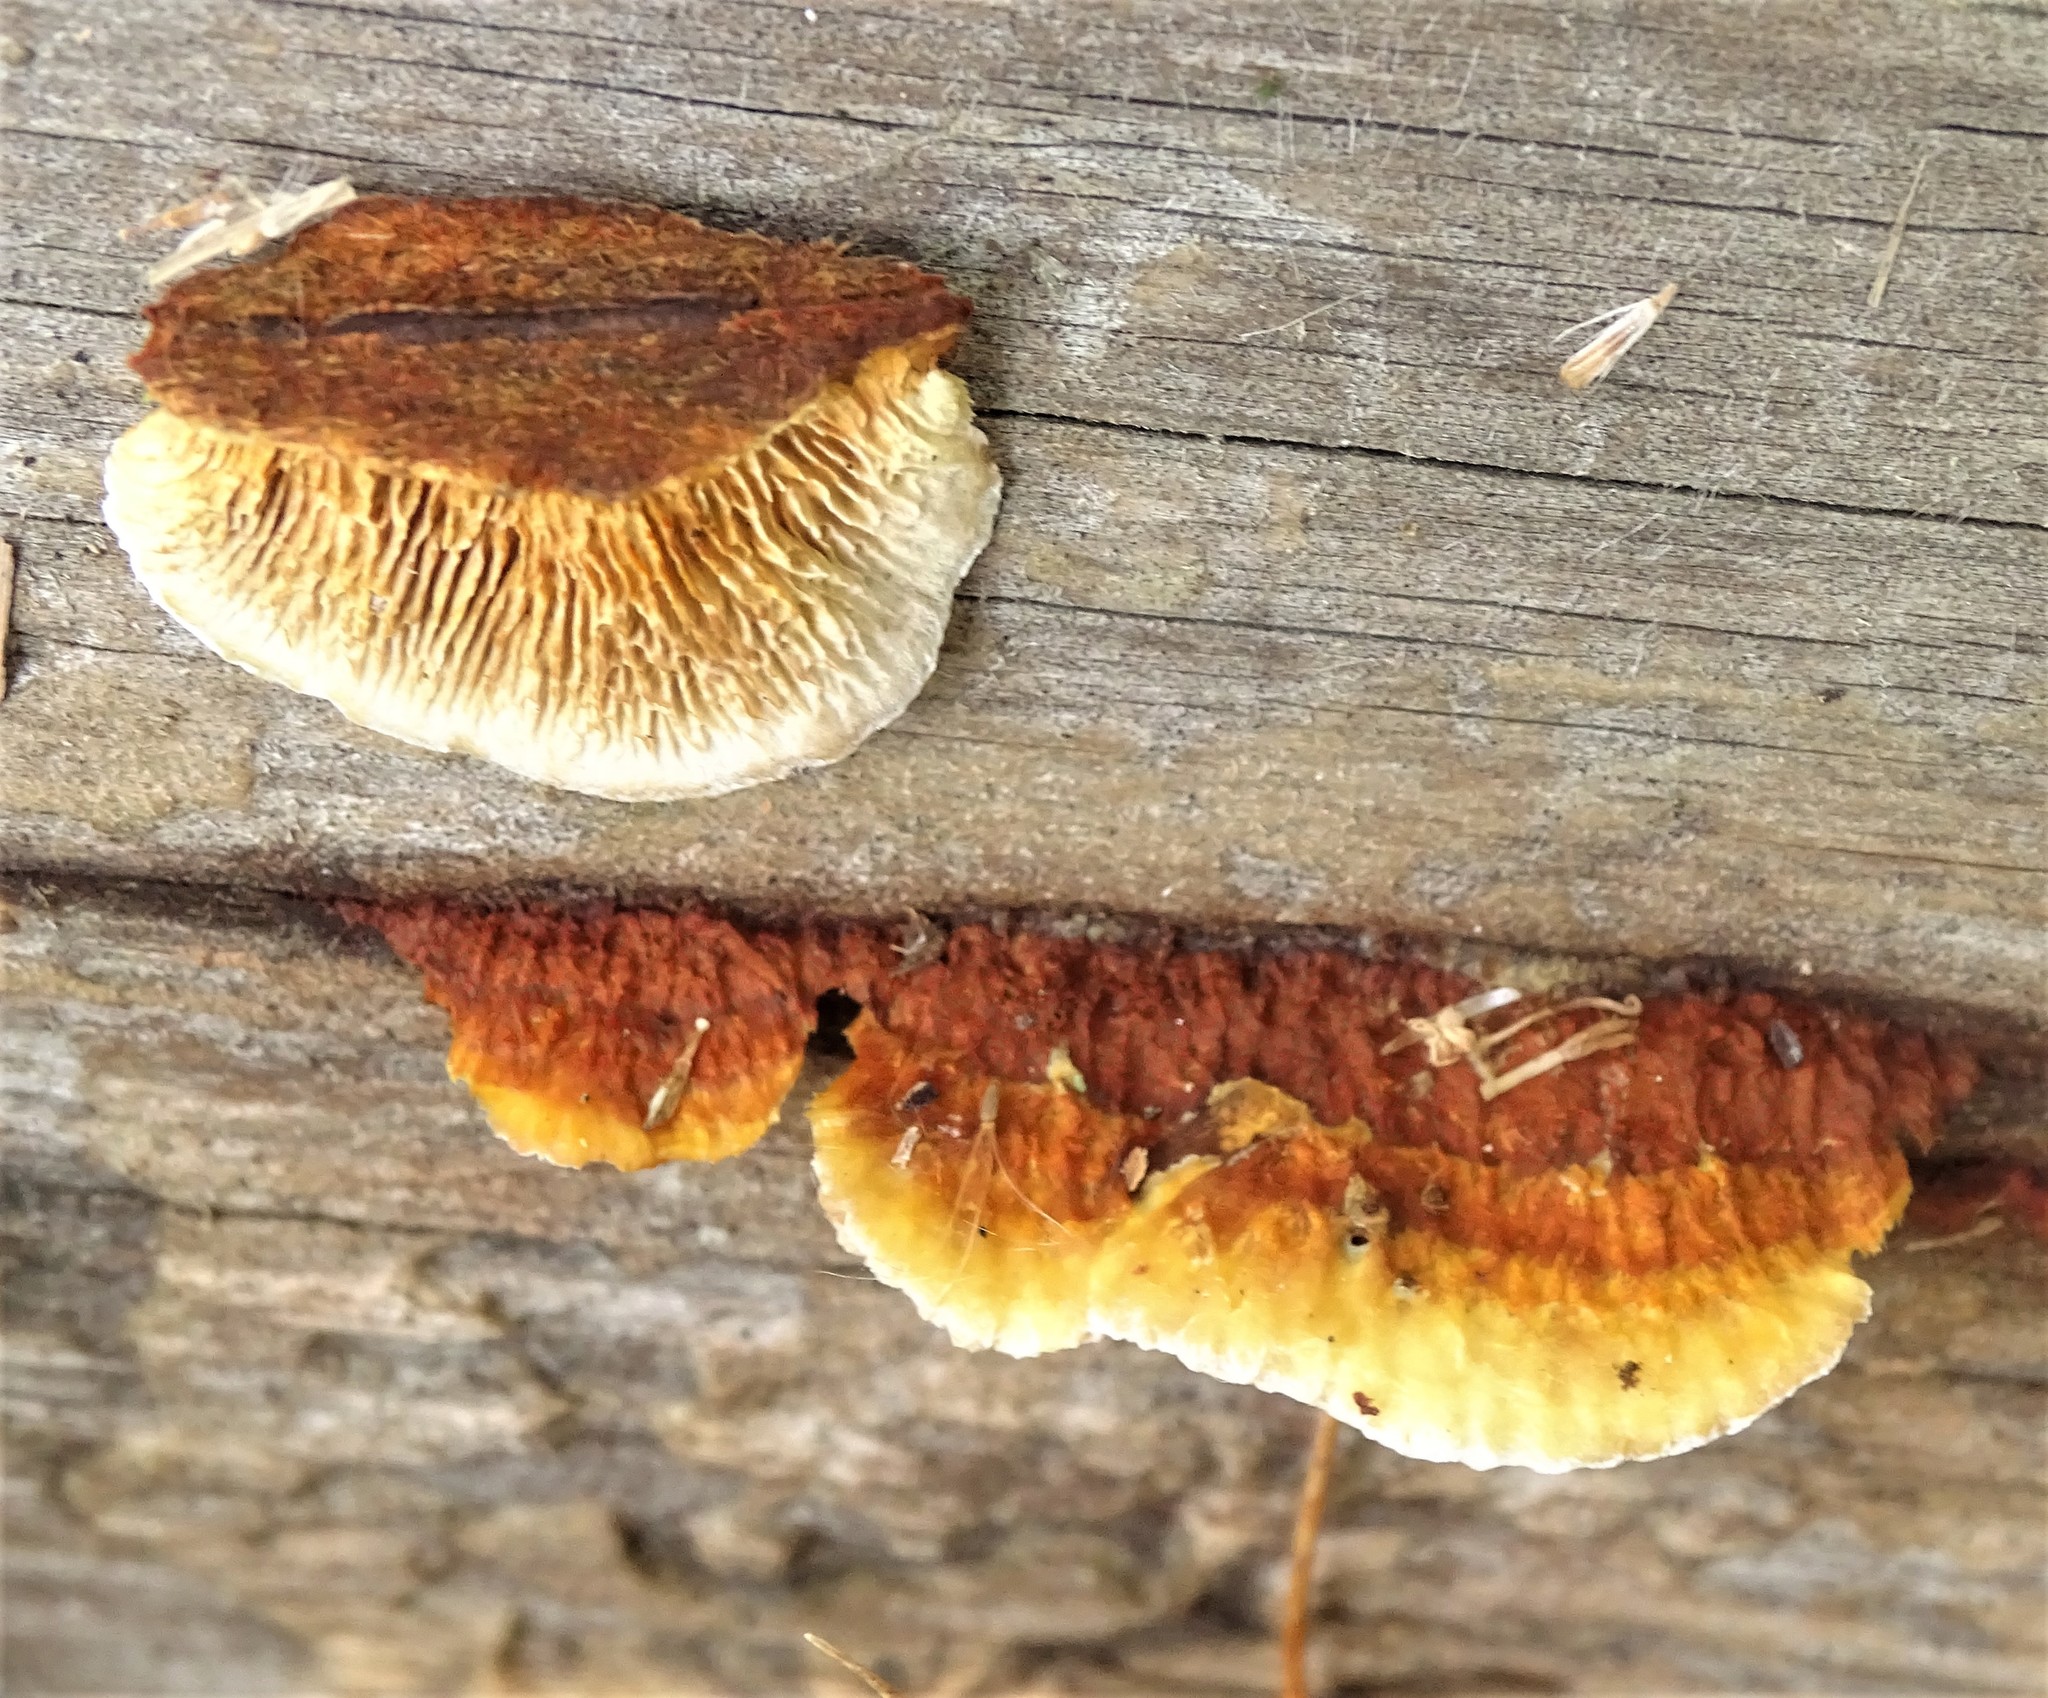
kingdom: Fungi
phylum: Basidiomycota
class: Agaricomycetes
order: Gloeophyllales
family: Gloeophyllaceae
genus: Gloeophyllum
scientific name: Gloeophyllum sepiarium
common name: Conifer mazegill
